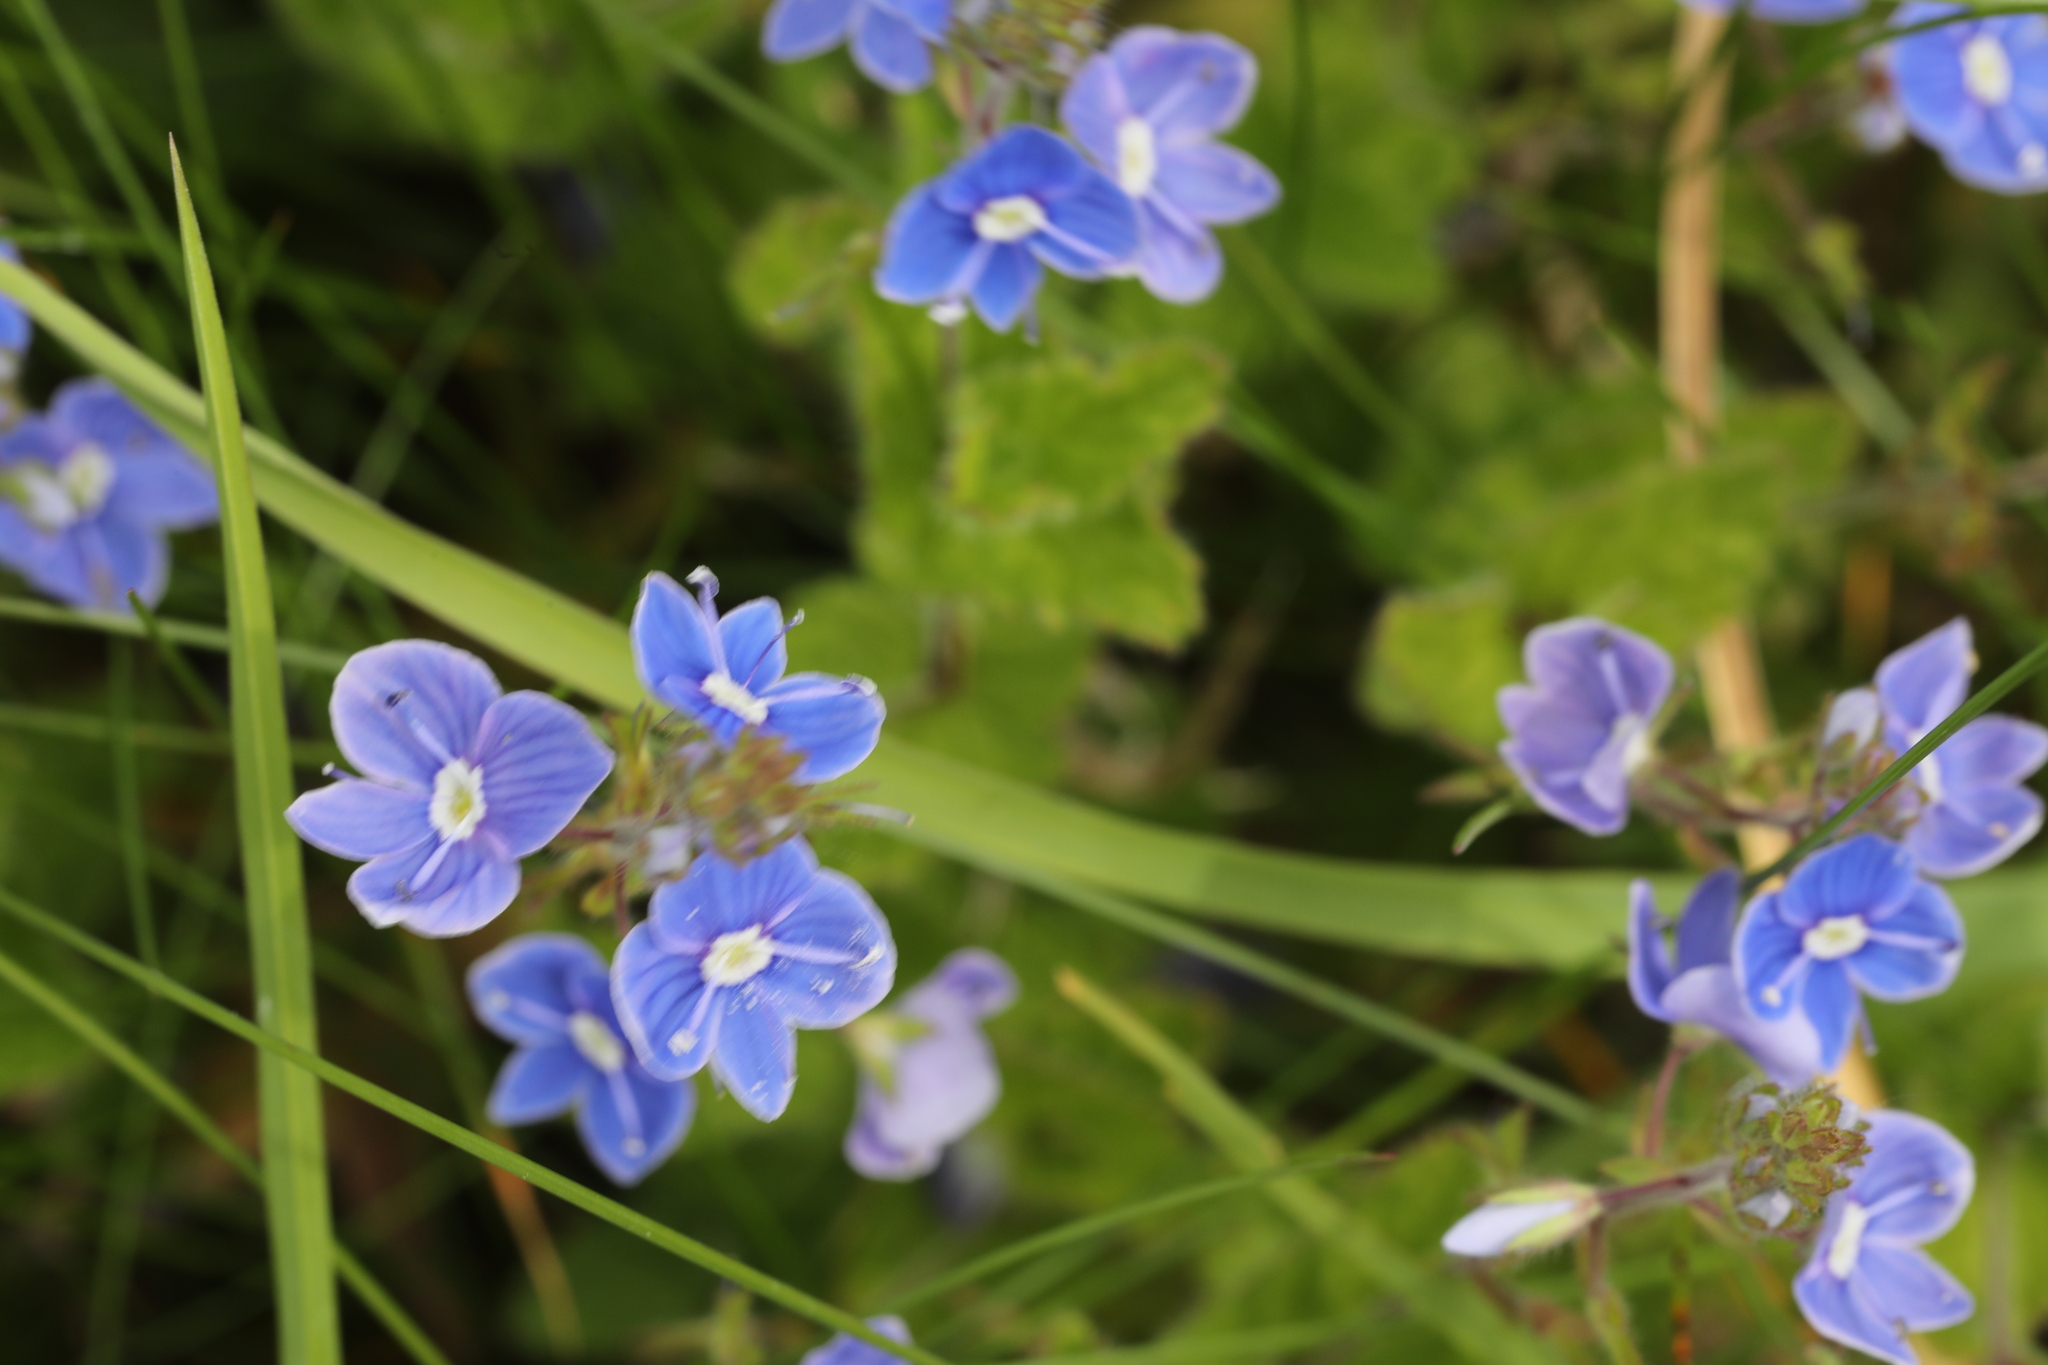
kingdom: Plantae
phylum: Tracheophyta
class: Magnoliopsida
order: Lamiales
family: Plantaginaceae
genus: Veronica
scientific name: Veronica chamaedrys
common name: Germander speedwell
